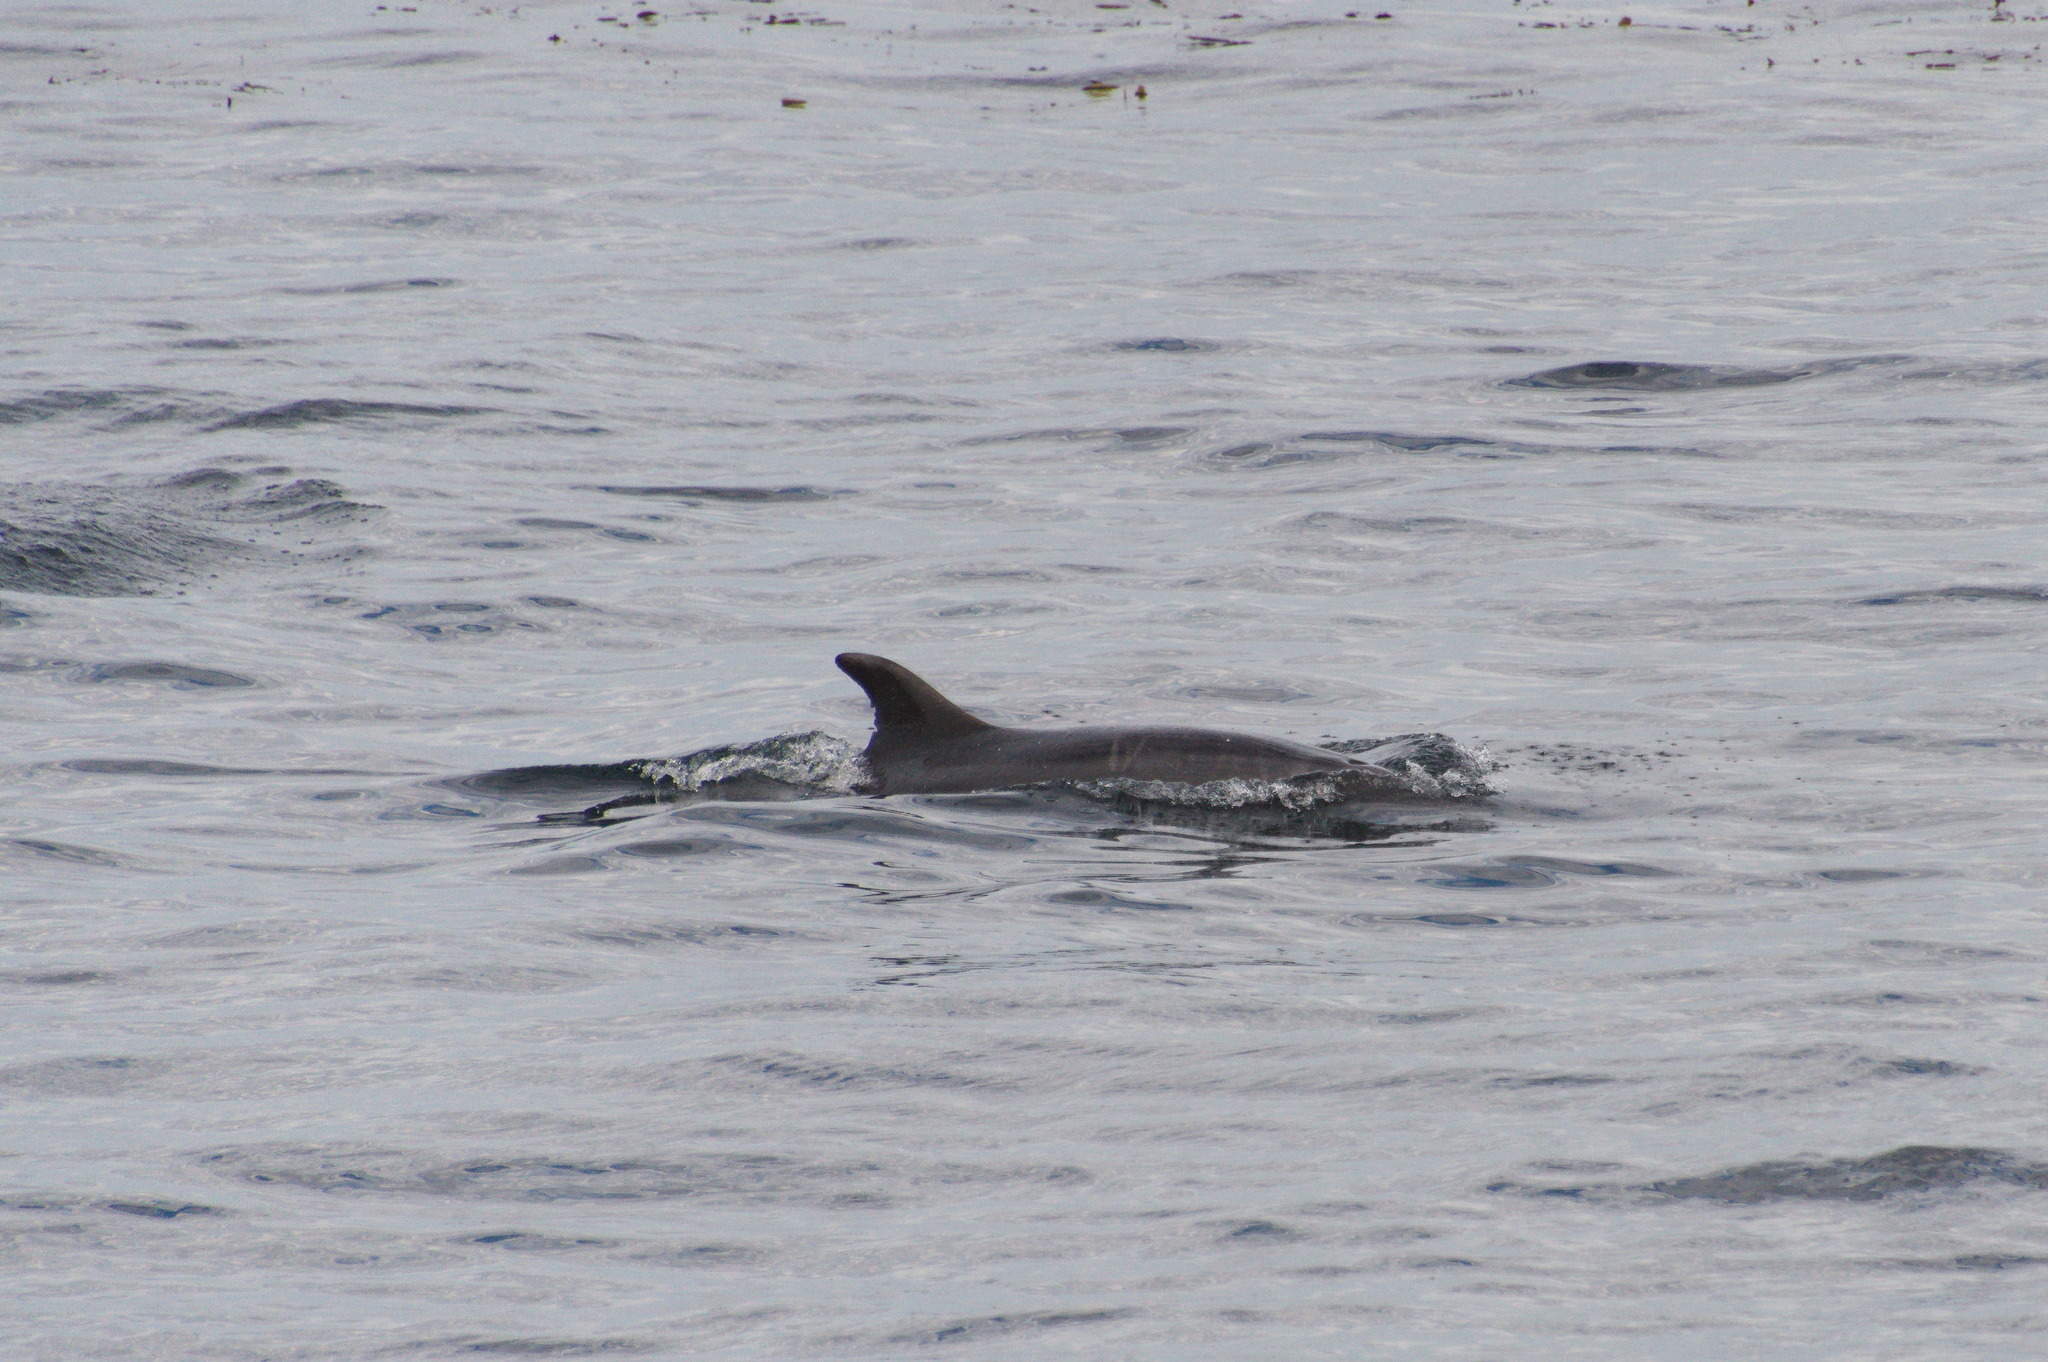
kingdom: Animalia
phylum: Chordata
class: Mammalia
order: Cetacea
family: Delphinidae
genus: Tursiops
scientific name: Tursiops truncatus
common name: Bottlenose dolphin
